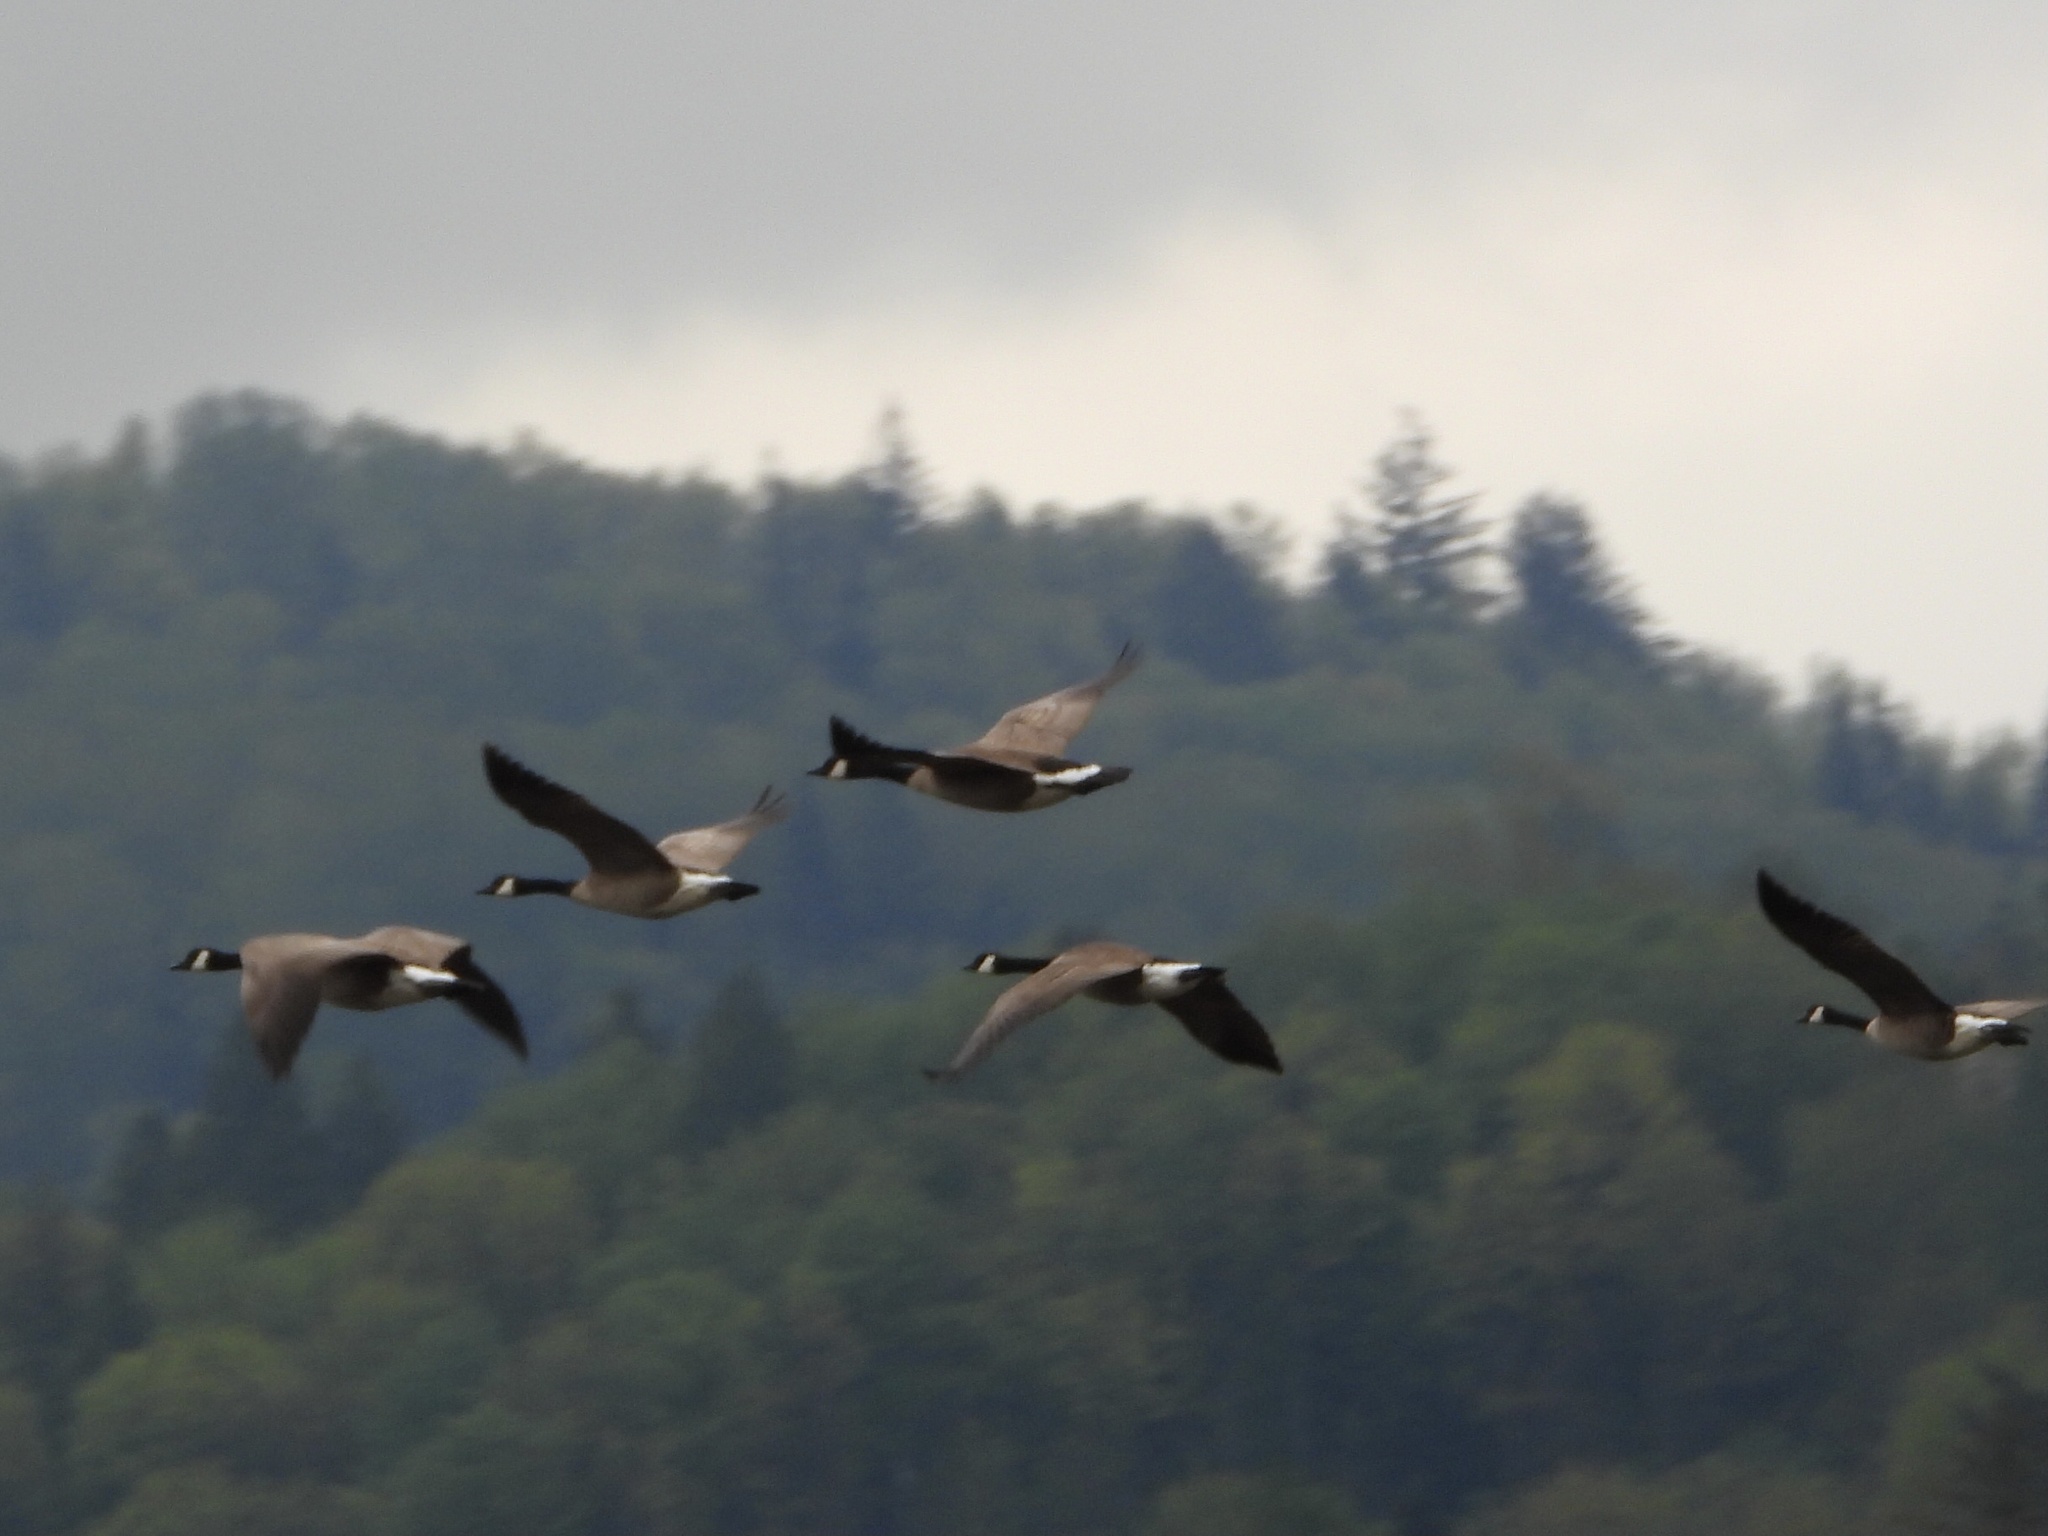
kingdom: Animalia
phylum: Chordata
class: Aves
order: Anseriformes
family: Anatidae
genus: Branta
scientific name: Branta canadensis
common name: Canada goose
